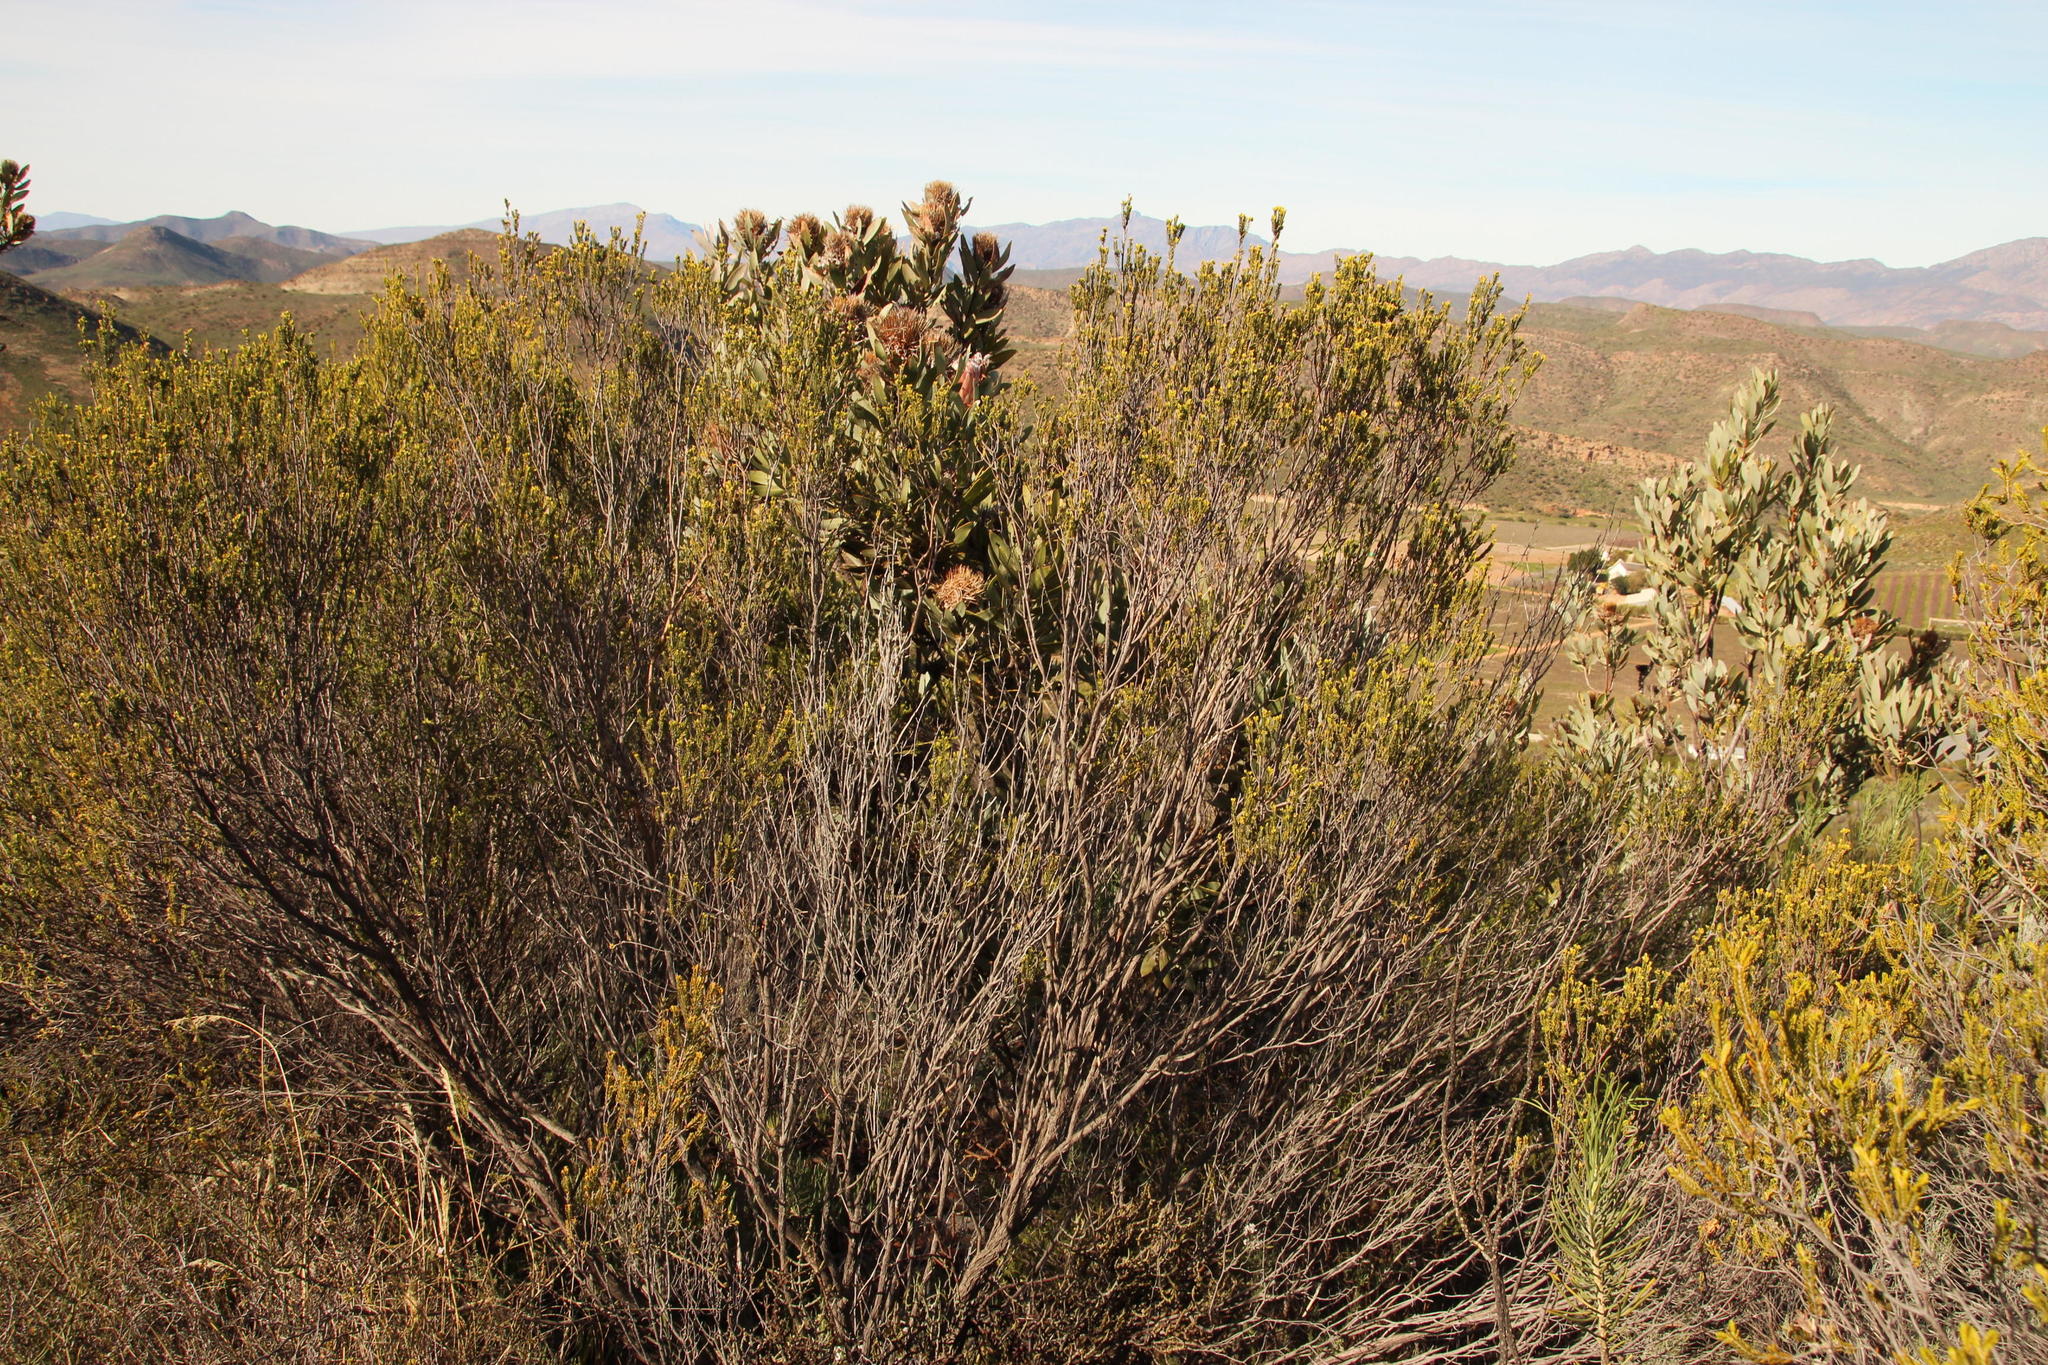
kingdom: Plantae
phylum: Tracheophyta
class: Magnoliopsida
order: Proteales
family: Proteaceae
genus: Protea
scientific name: Protea laurifolia
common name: Grey-leaf sugarbsh
